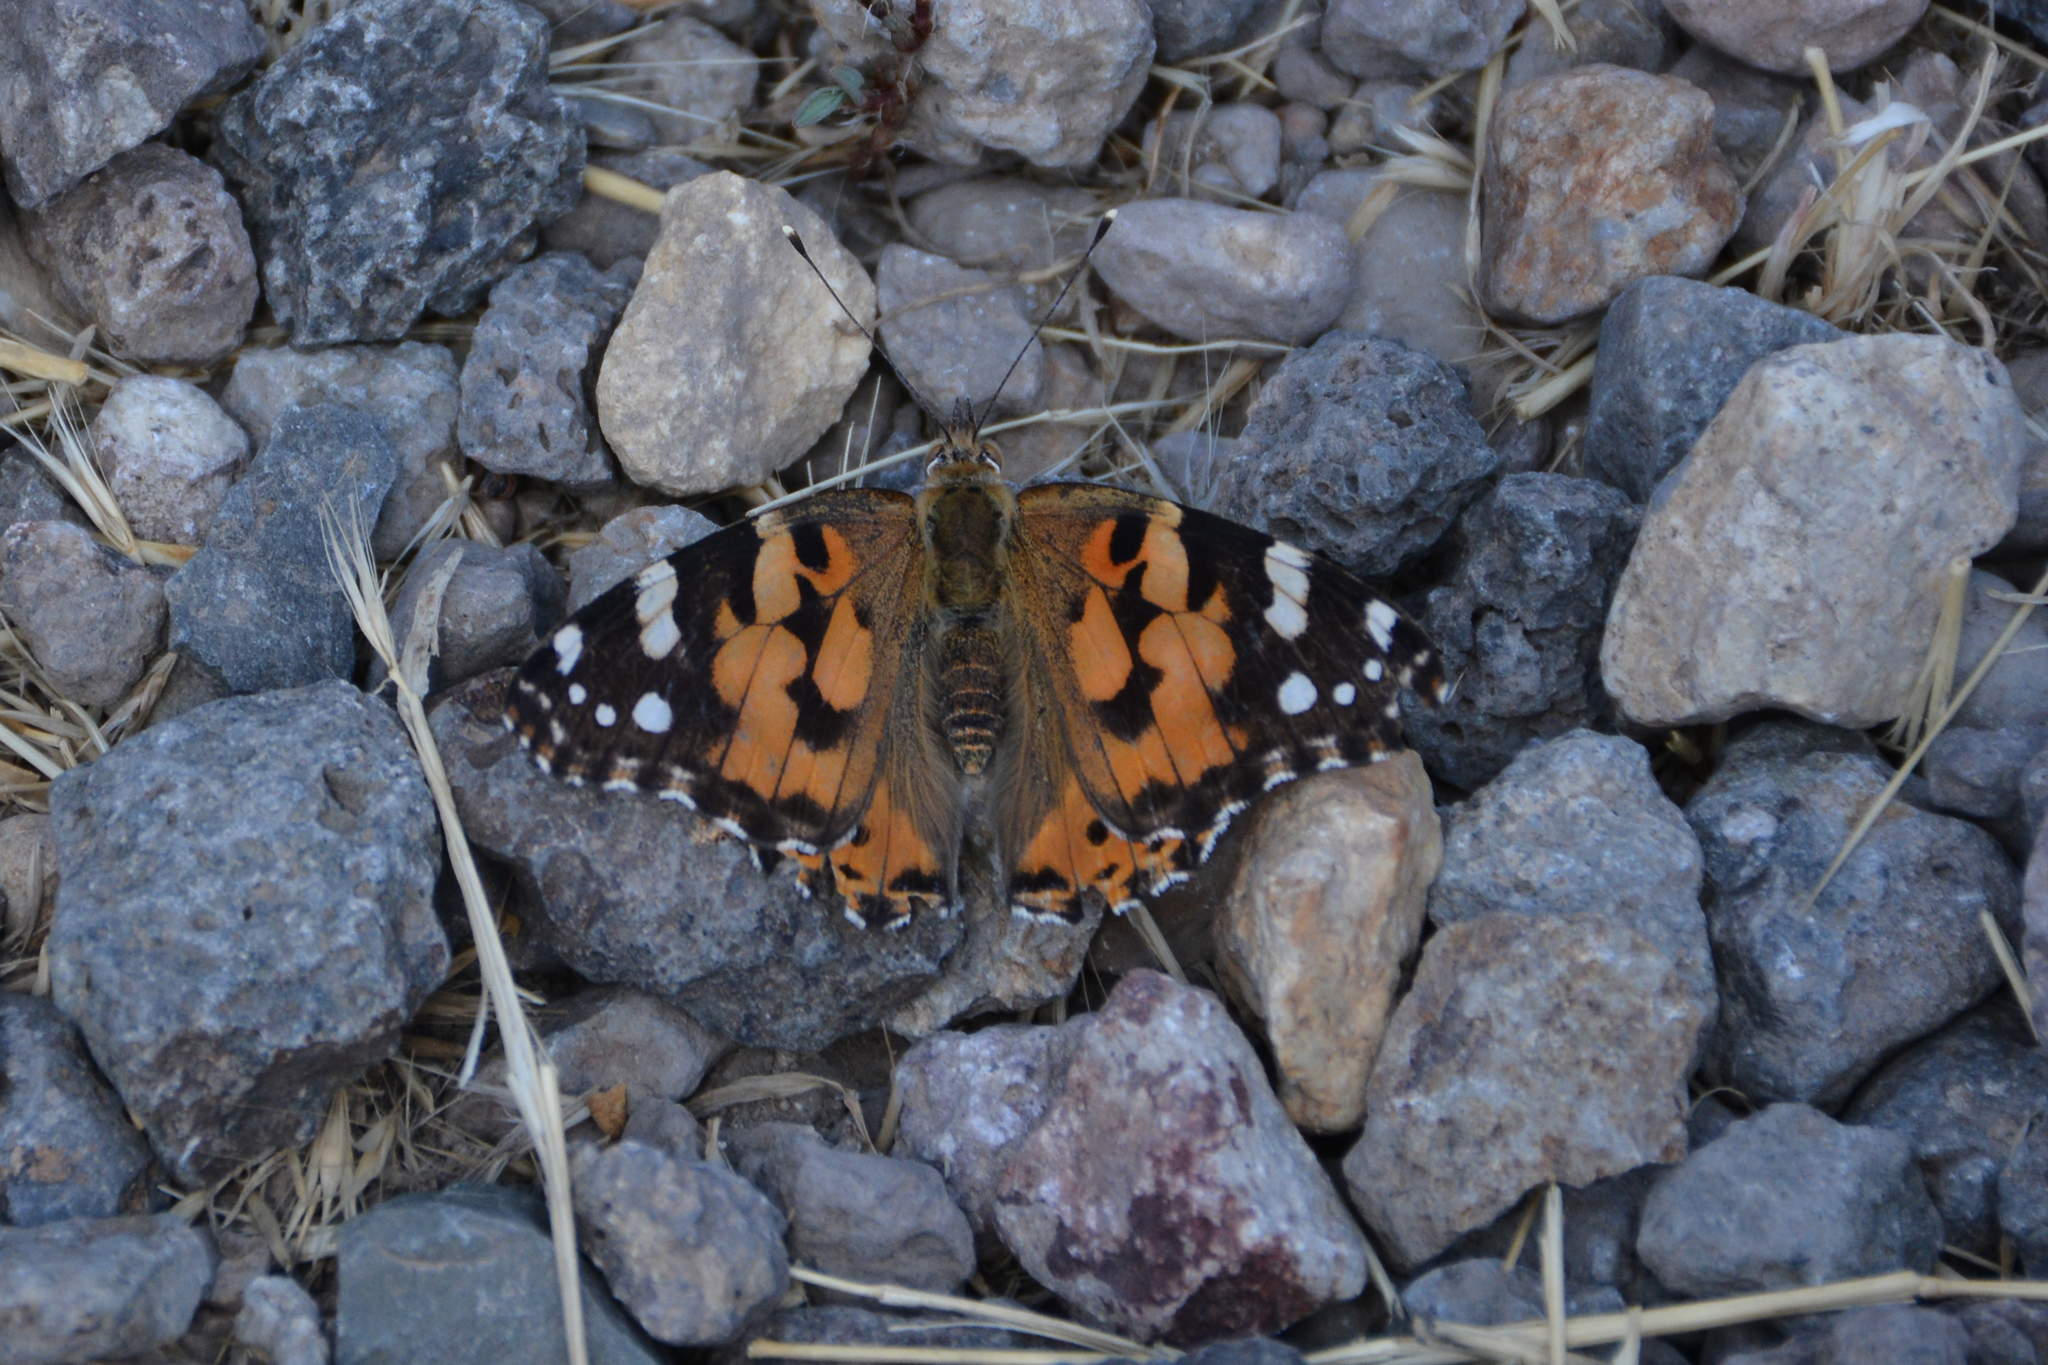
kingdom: Animalia
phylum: Arthropoda
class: Insecta
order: Lepidoptera
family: Nymphalidae
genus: Vanessa
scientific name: Vanessa cardui
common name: Painted lady
